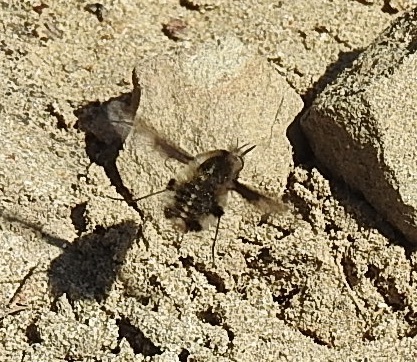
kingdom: Animalia
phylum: Arthropoda
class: Insecta
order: Diptera
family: Bombyliidae
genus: Bombylius
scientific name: Bombylius major
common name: Bee fly
